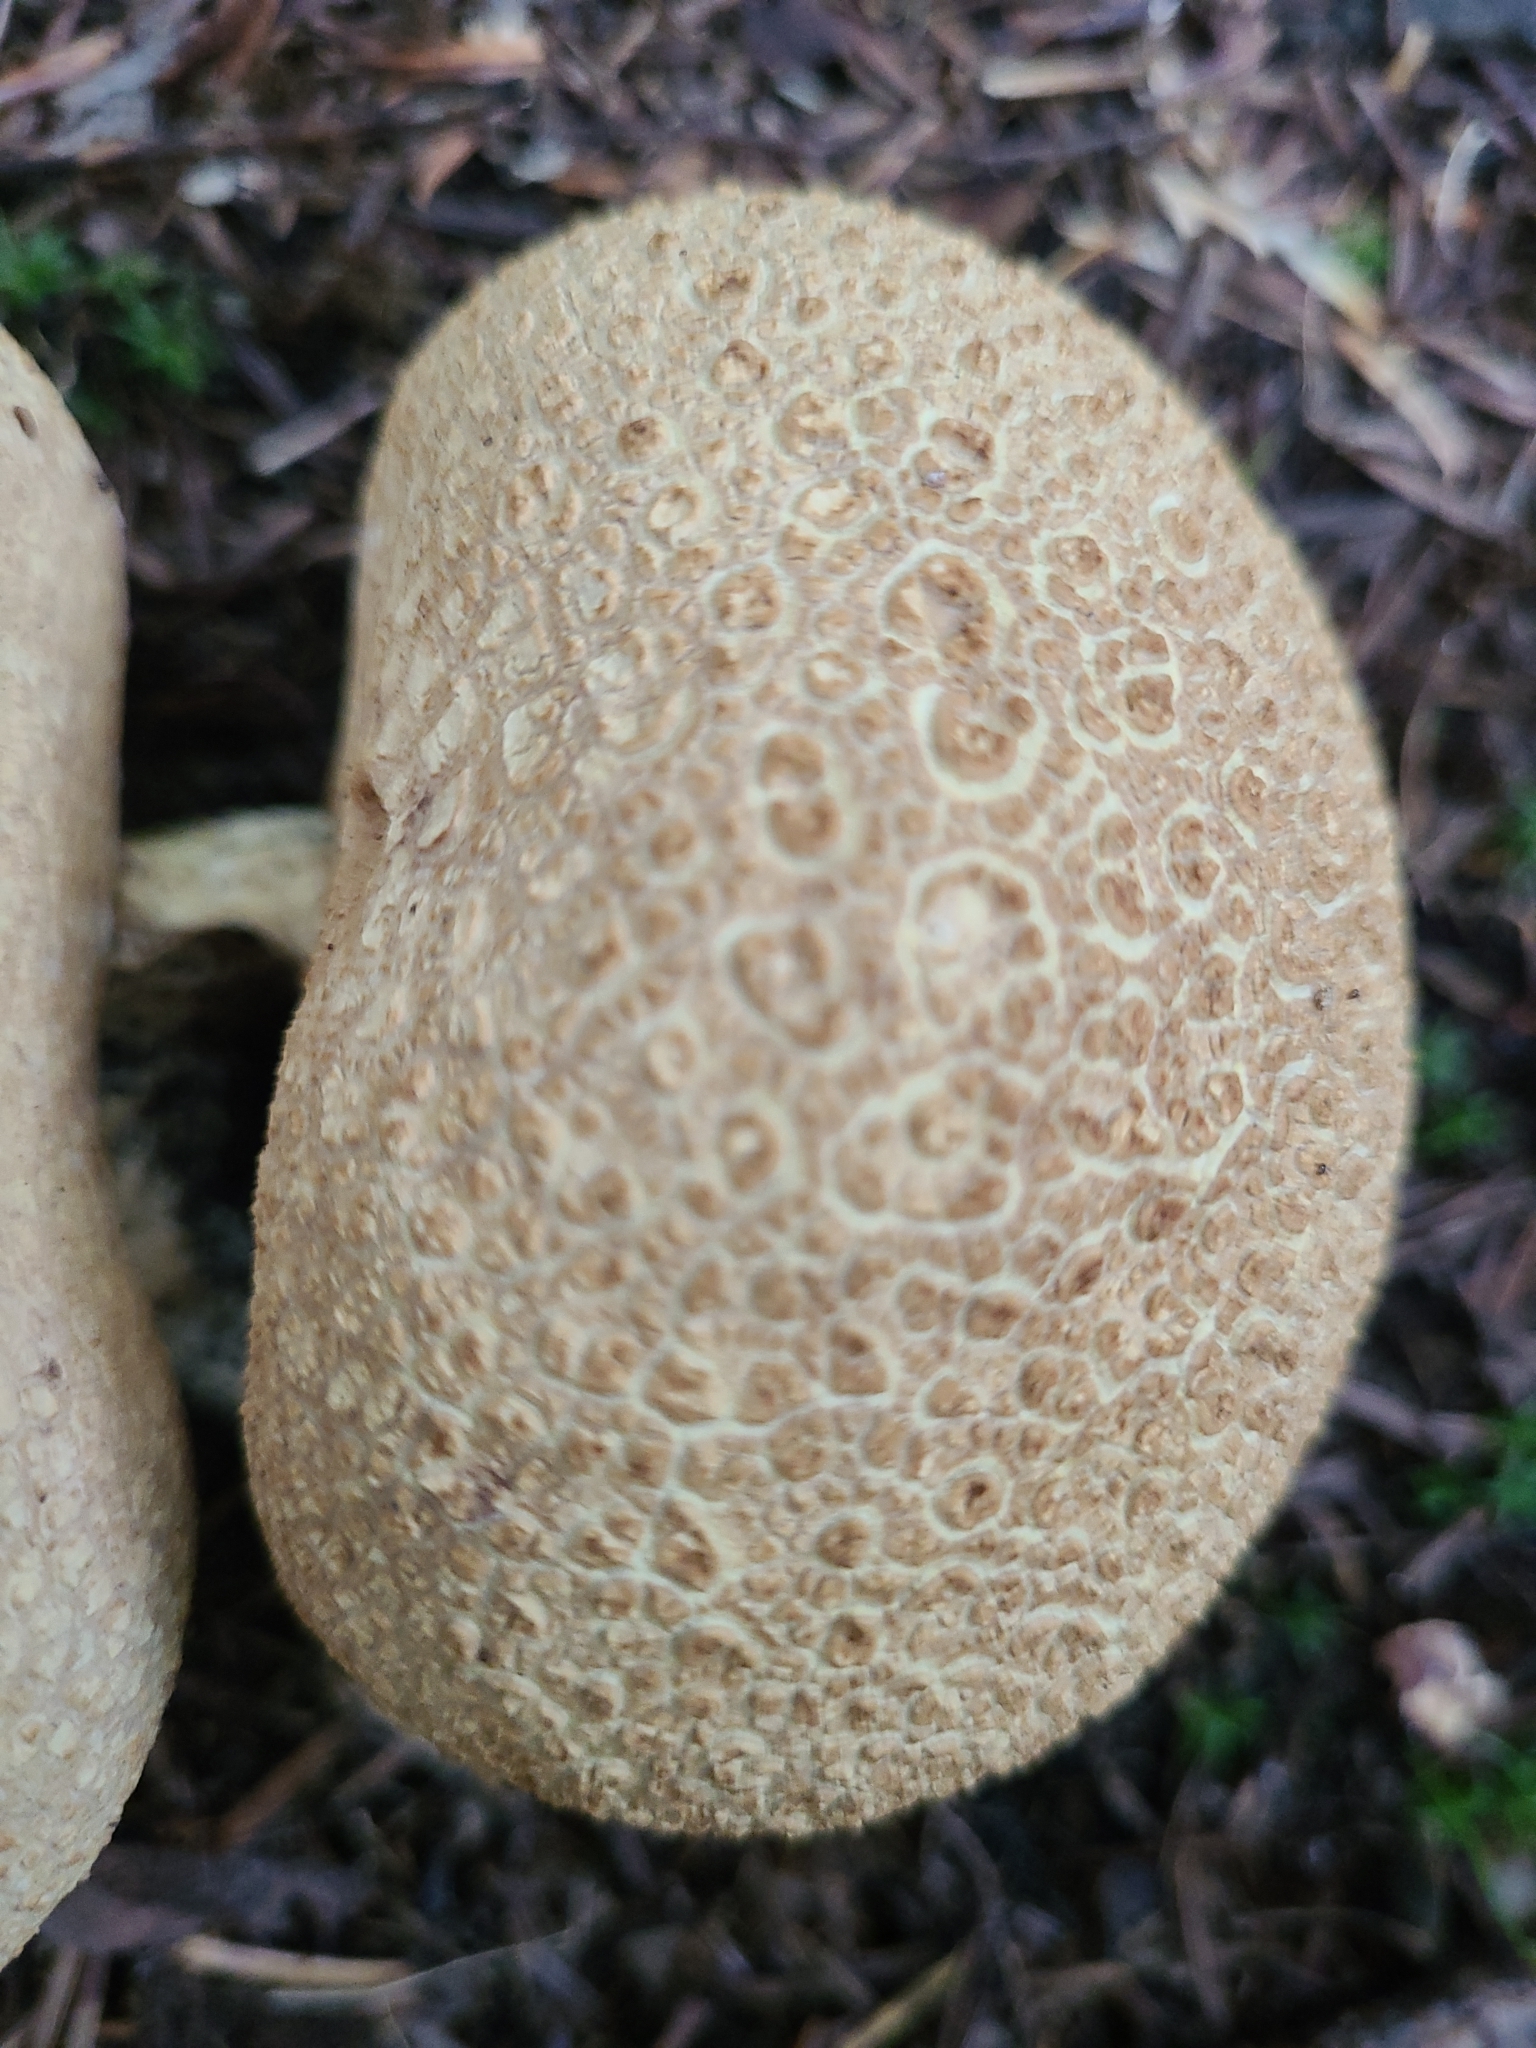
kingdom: Fungi
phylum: Basidiomycota
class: Agaricomycetes
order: Agaricales
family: Lycoperdaceae
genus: Lycoperdon
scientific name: Lycoperdon perlatum
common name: Common puffball
